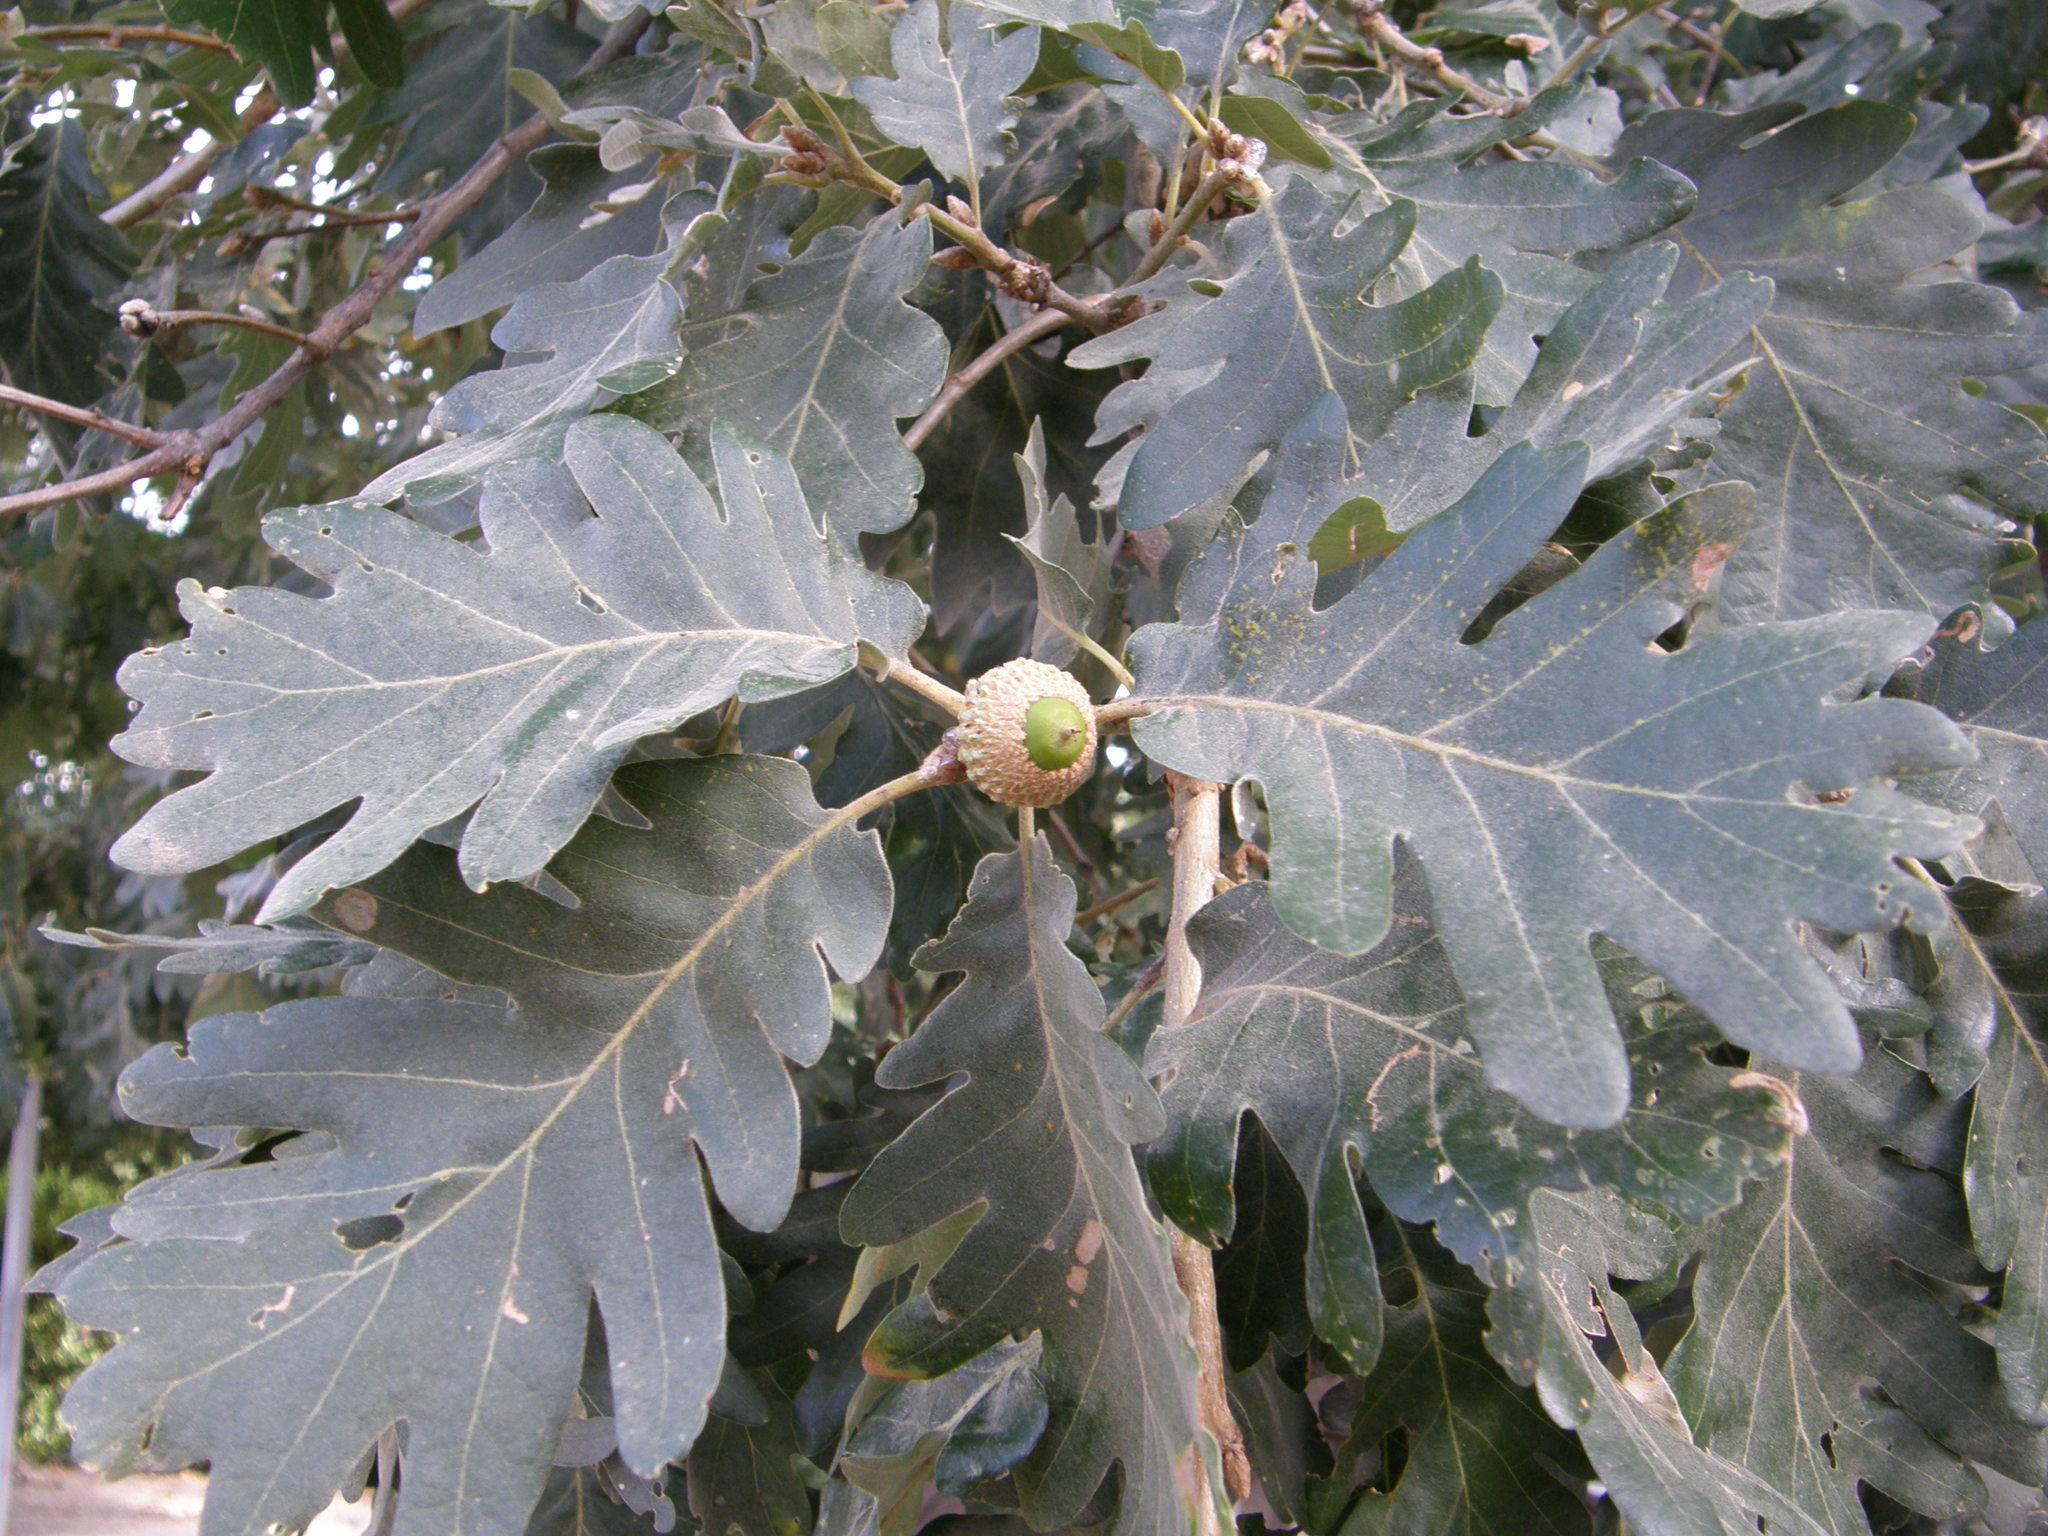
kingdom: Plantae
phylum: Tracheophyta
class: Magnoliopsida
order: Fagales
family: Fagaceae
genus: Quercus
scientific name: Quercus pyrenaica
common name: Pyrenean oak
